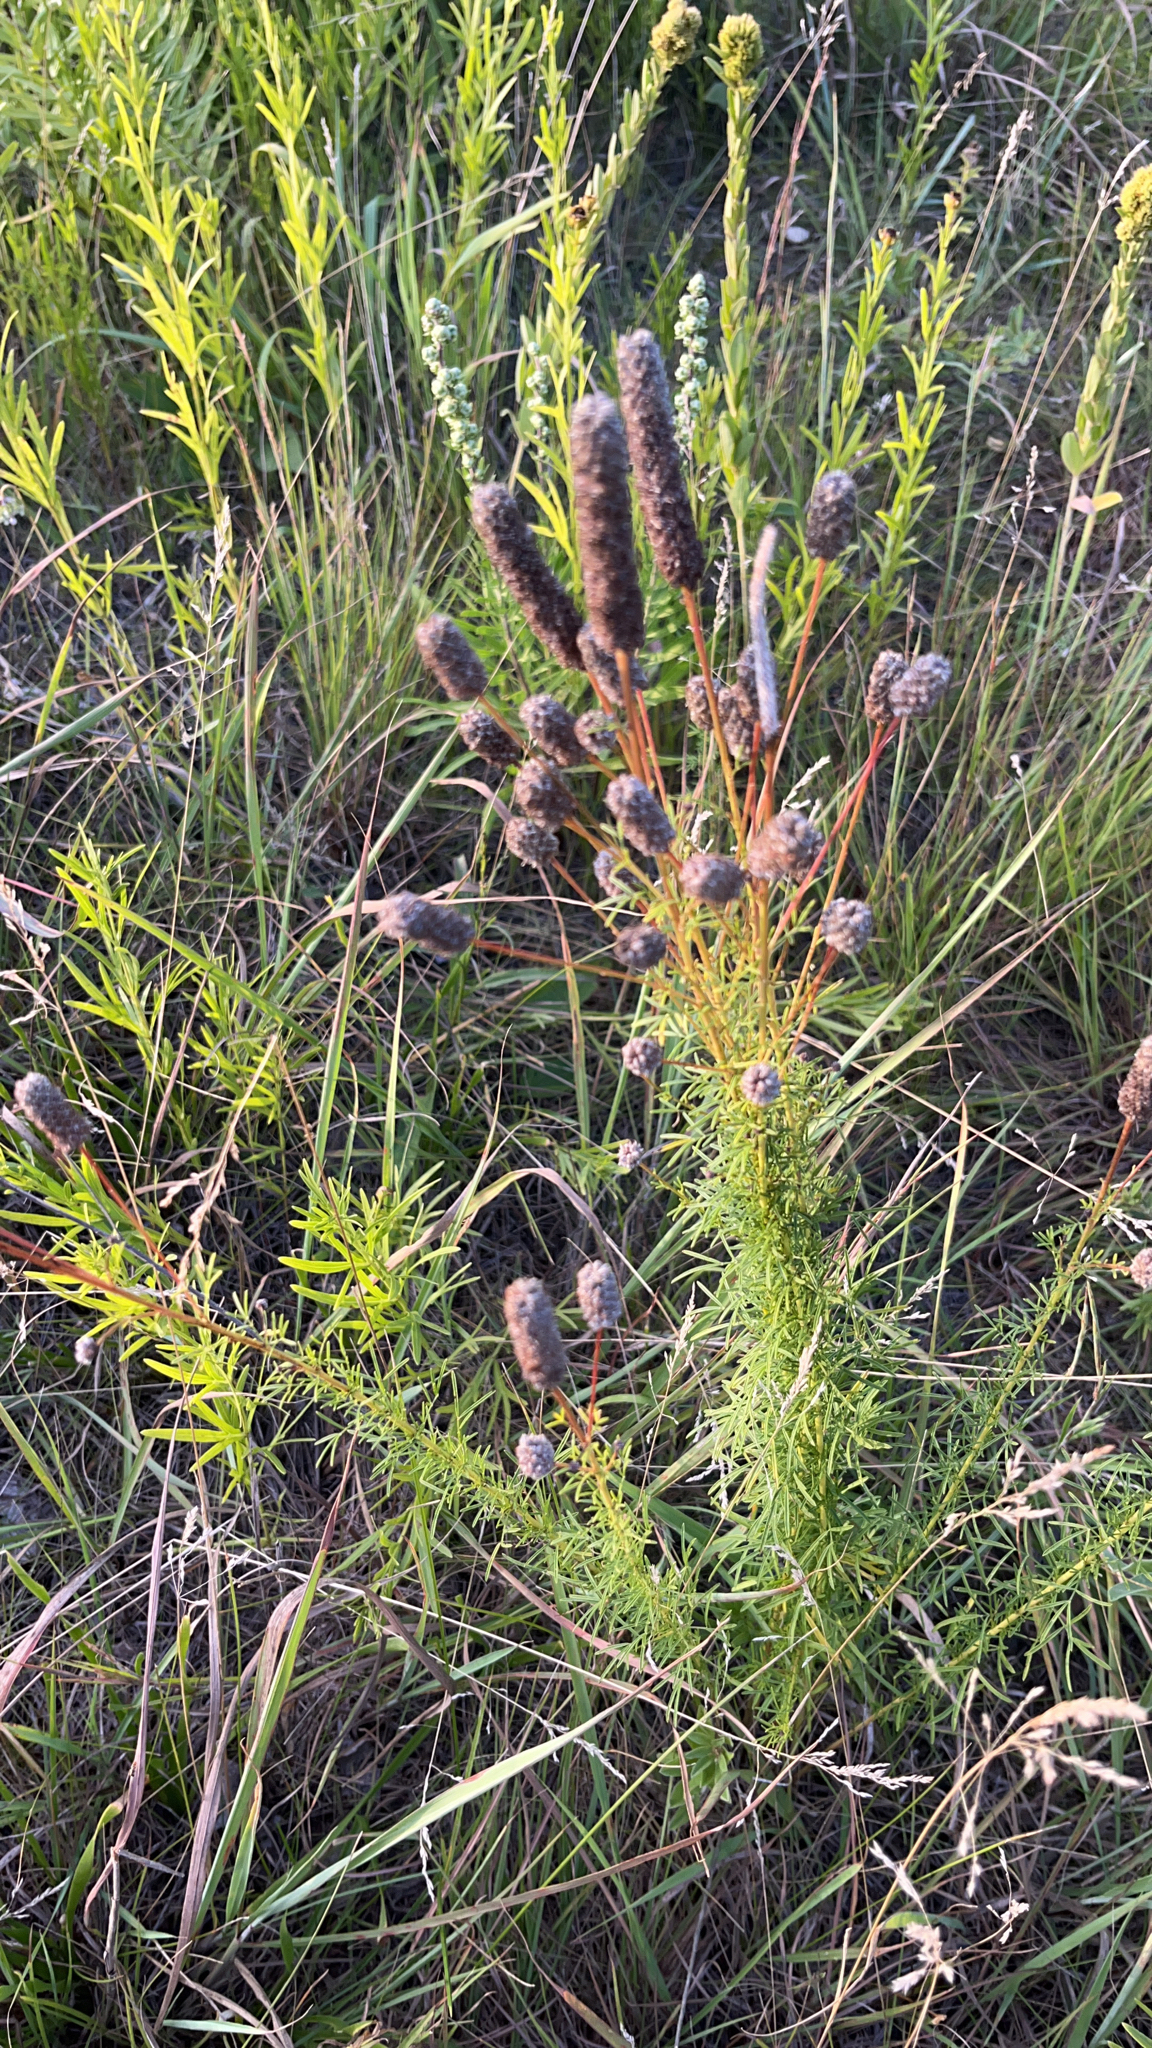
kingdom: Plantae
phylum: Tracheophyta
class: Magnoliopsida
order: Fabales
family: Fabaceae
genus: Dalea
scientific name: Dalea purpurea
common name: Purple prairie-clover
